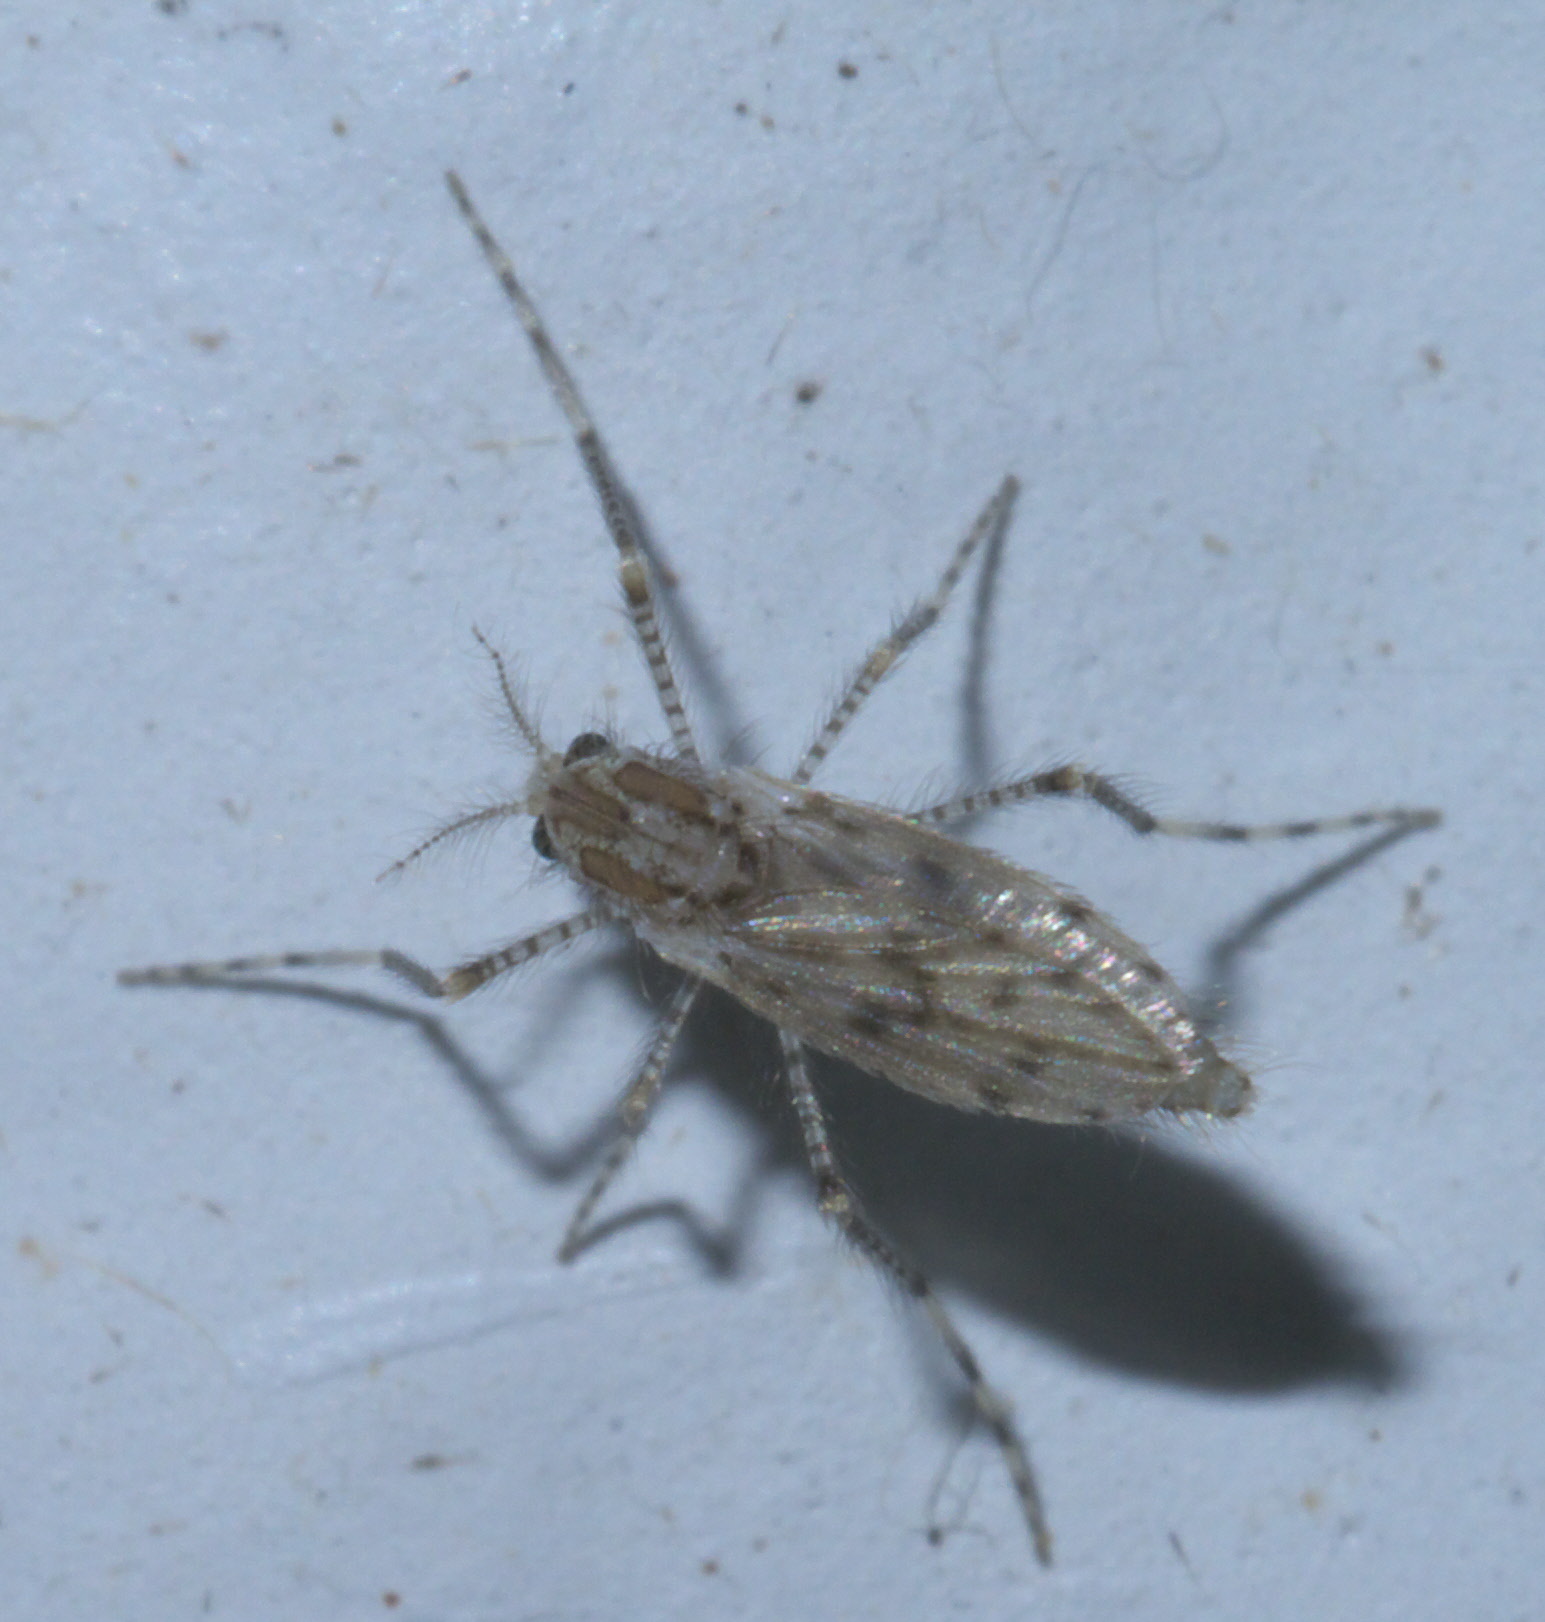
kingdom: Animalia
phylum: Arthropoda
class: Insecta
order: Diptera
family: Chaoboridae
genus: Chaoborus
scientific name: Chaoborus punctipennis
